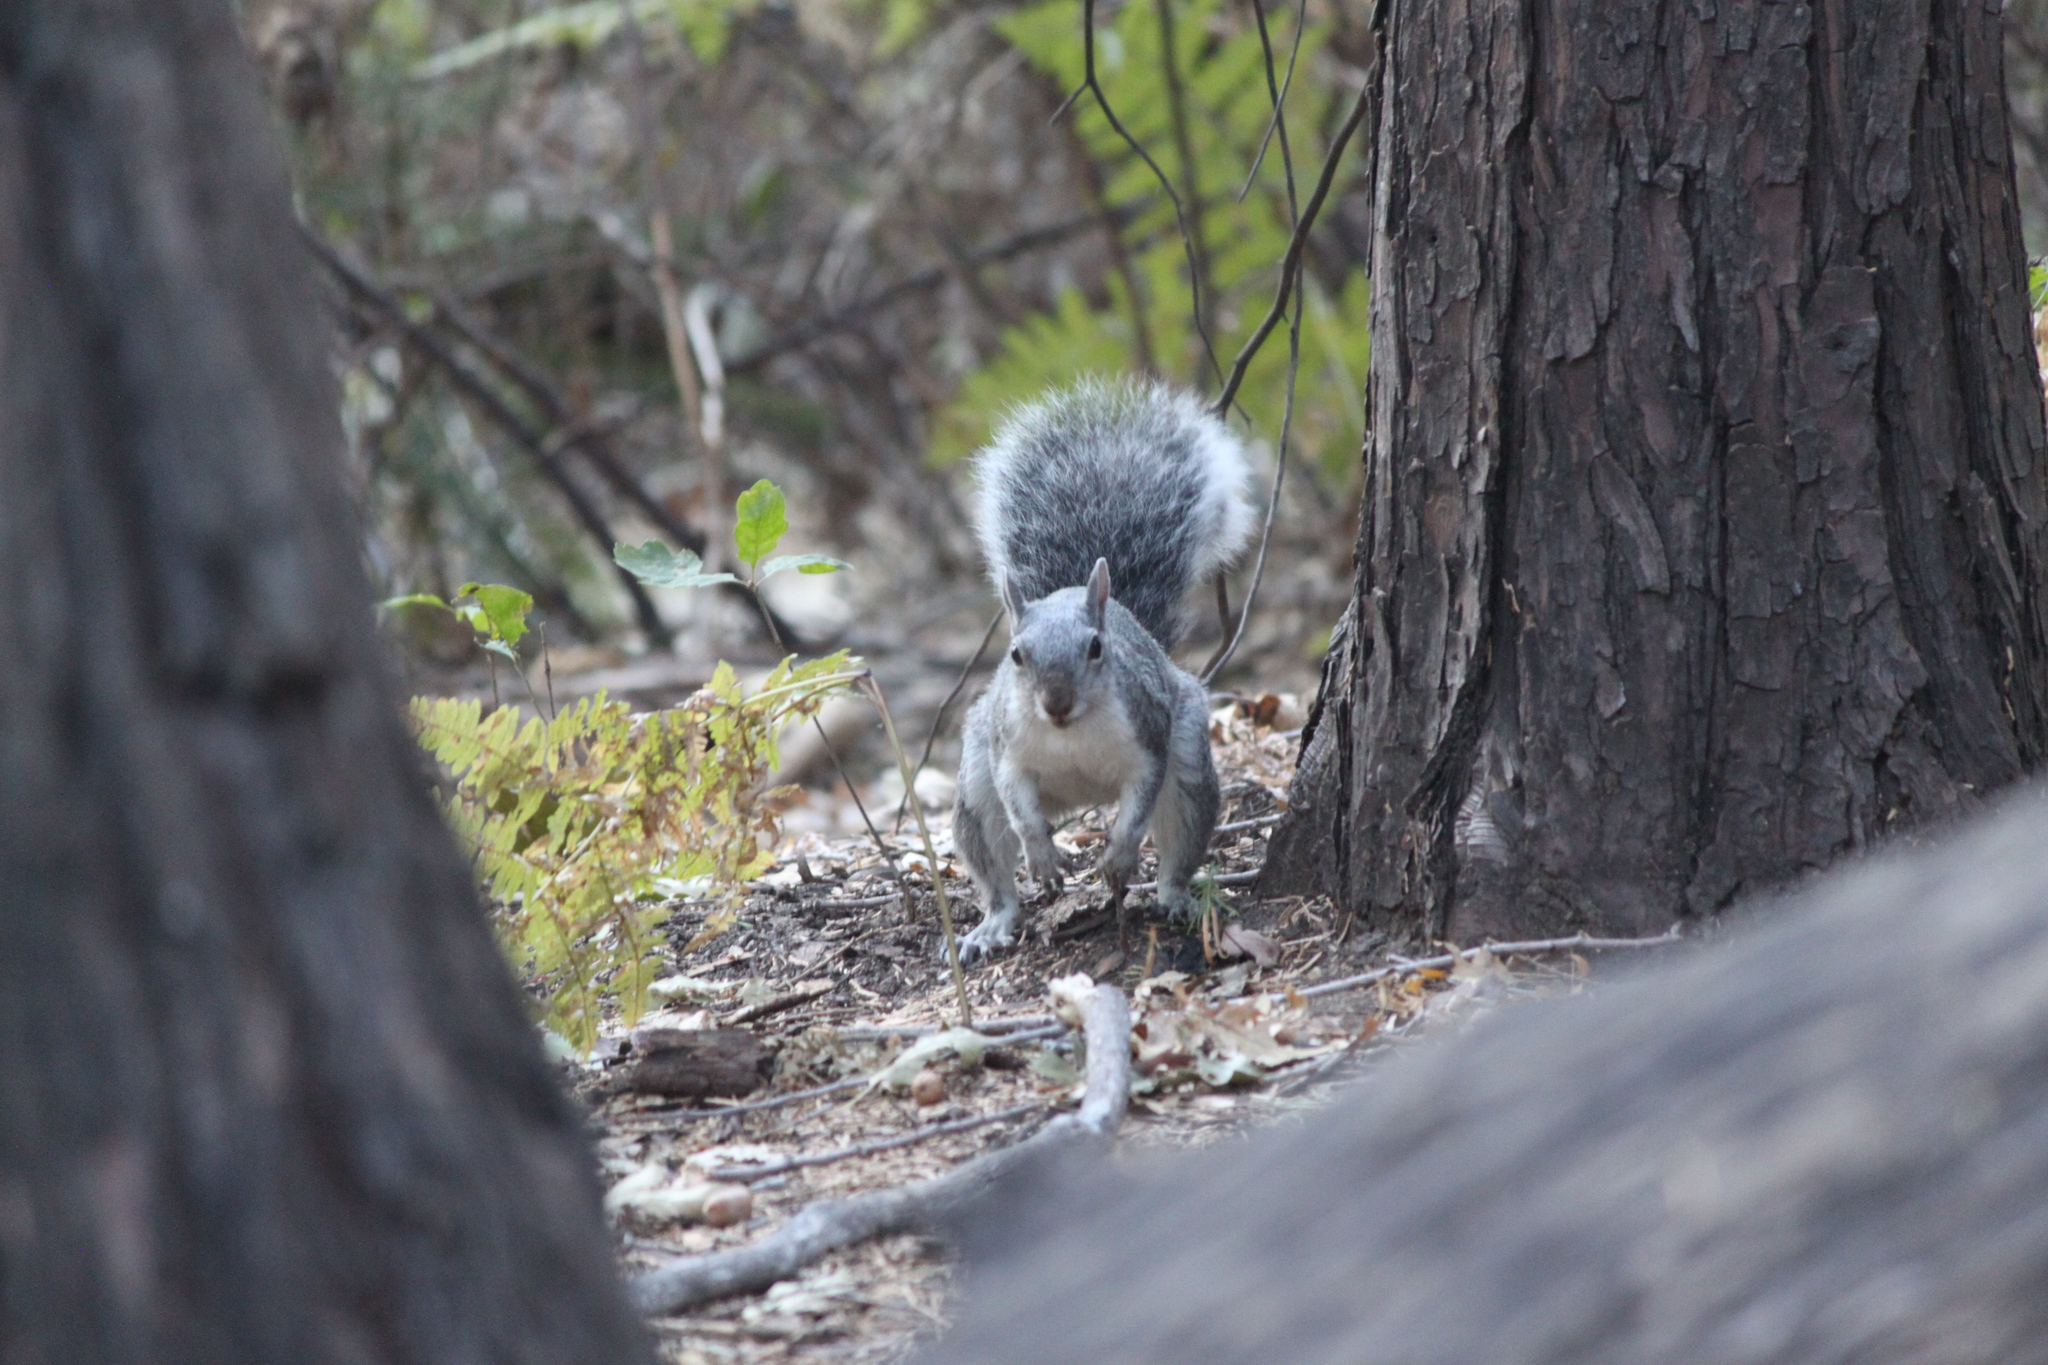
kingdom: Animalia
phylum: Chordata
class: Mammalia
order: Rodentia
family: Sciuridae
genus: Sciurus
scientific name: Sciurus griseus
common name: Western gray squirrel
